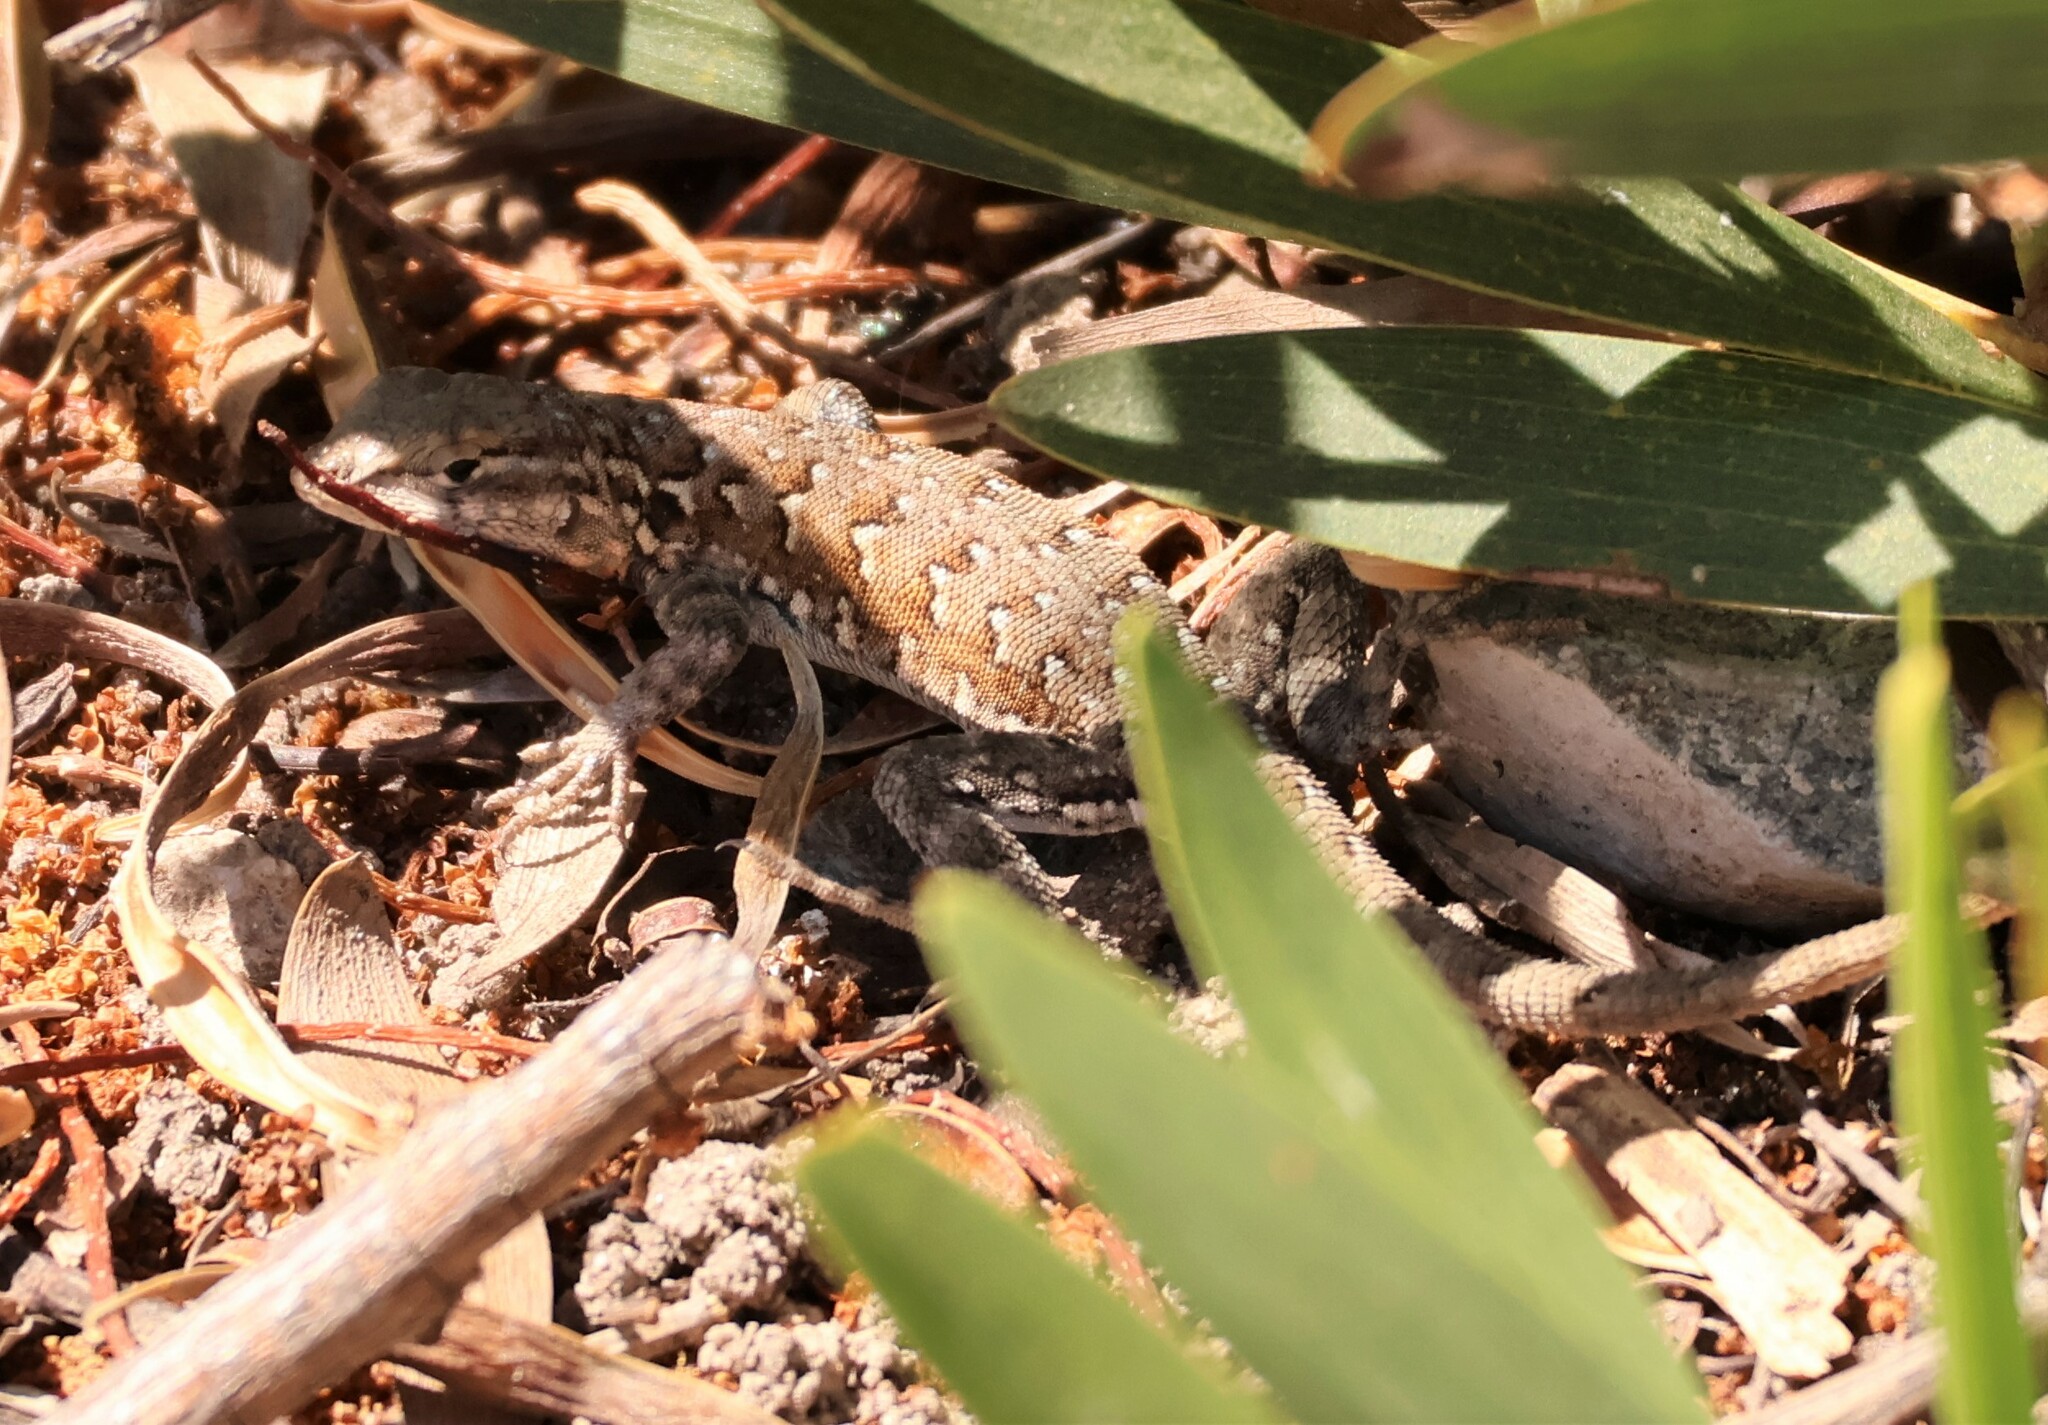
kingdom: Animalia
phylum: Chordata
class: Squamata
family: Phrynosomatidae
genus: Uta
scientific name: Uta stansburiana
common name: Side-blotched lizard
